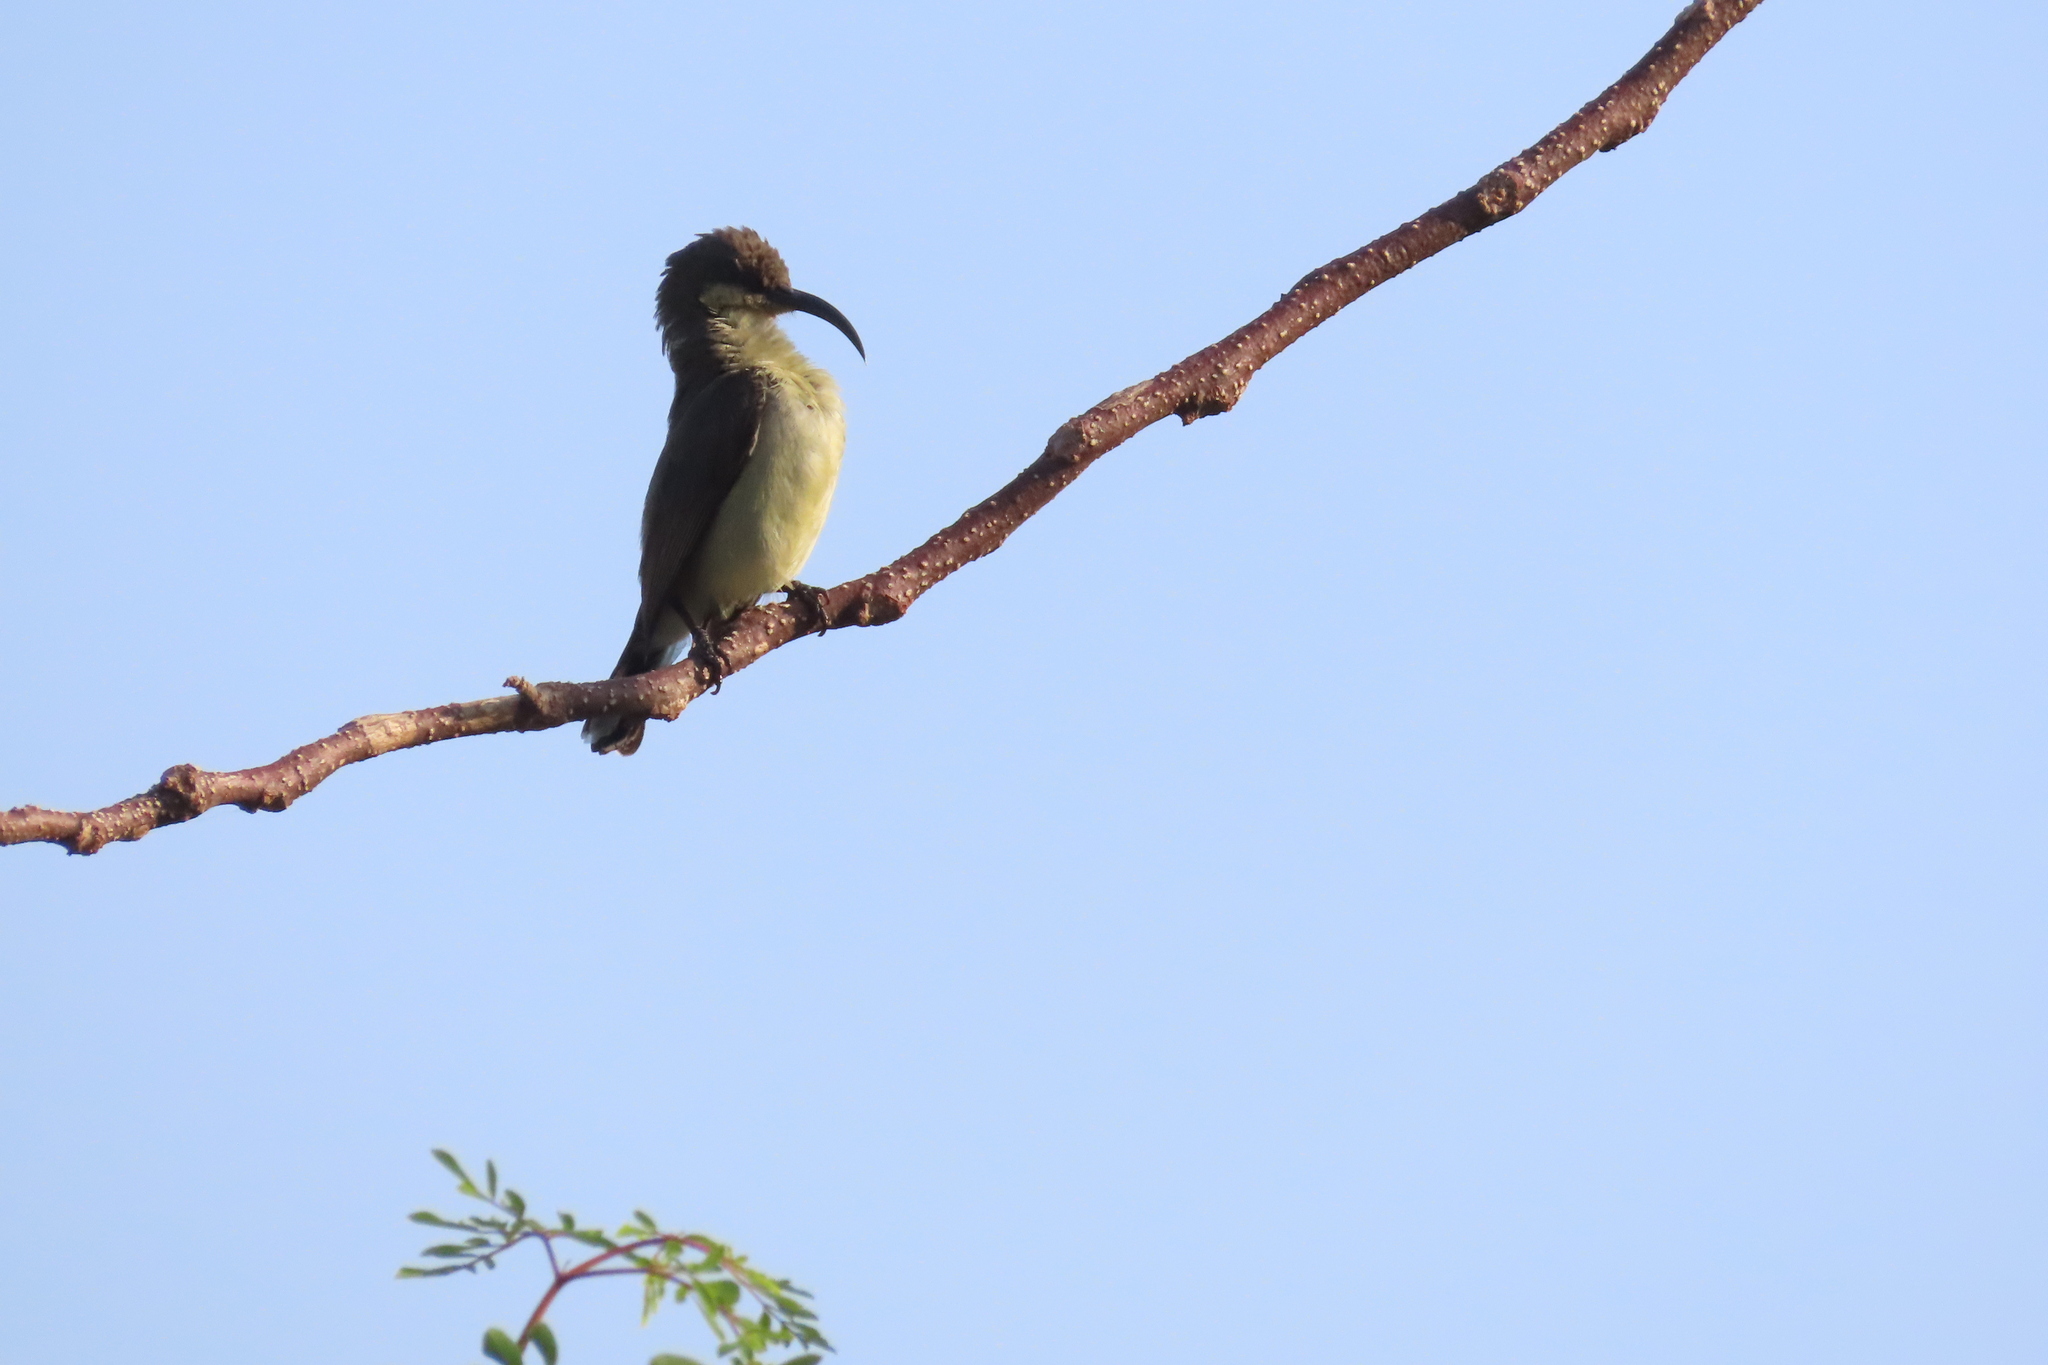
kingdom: Animalia
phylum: Chordata
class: Aves
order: Passeriformes
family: Nectariniidae
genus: Cinnyris
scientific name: Cinnyris lotenius
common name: Loten's sunbird
